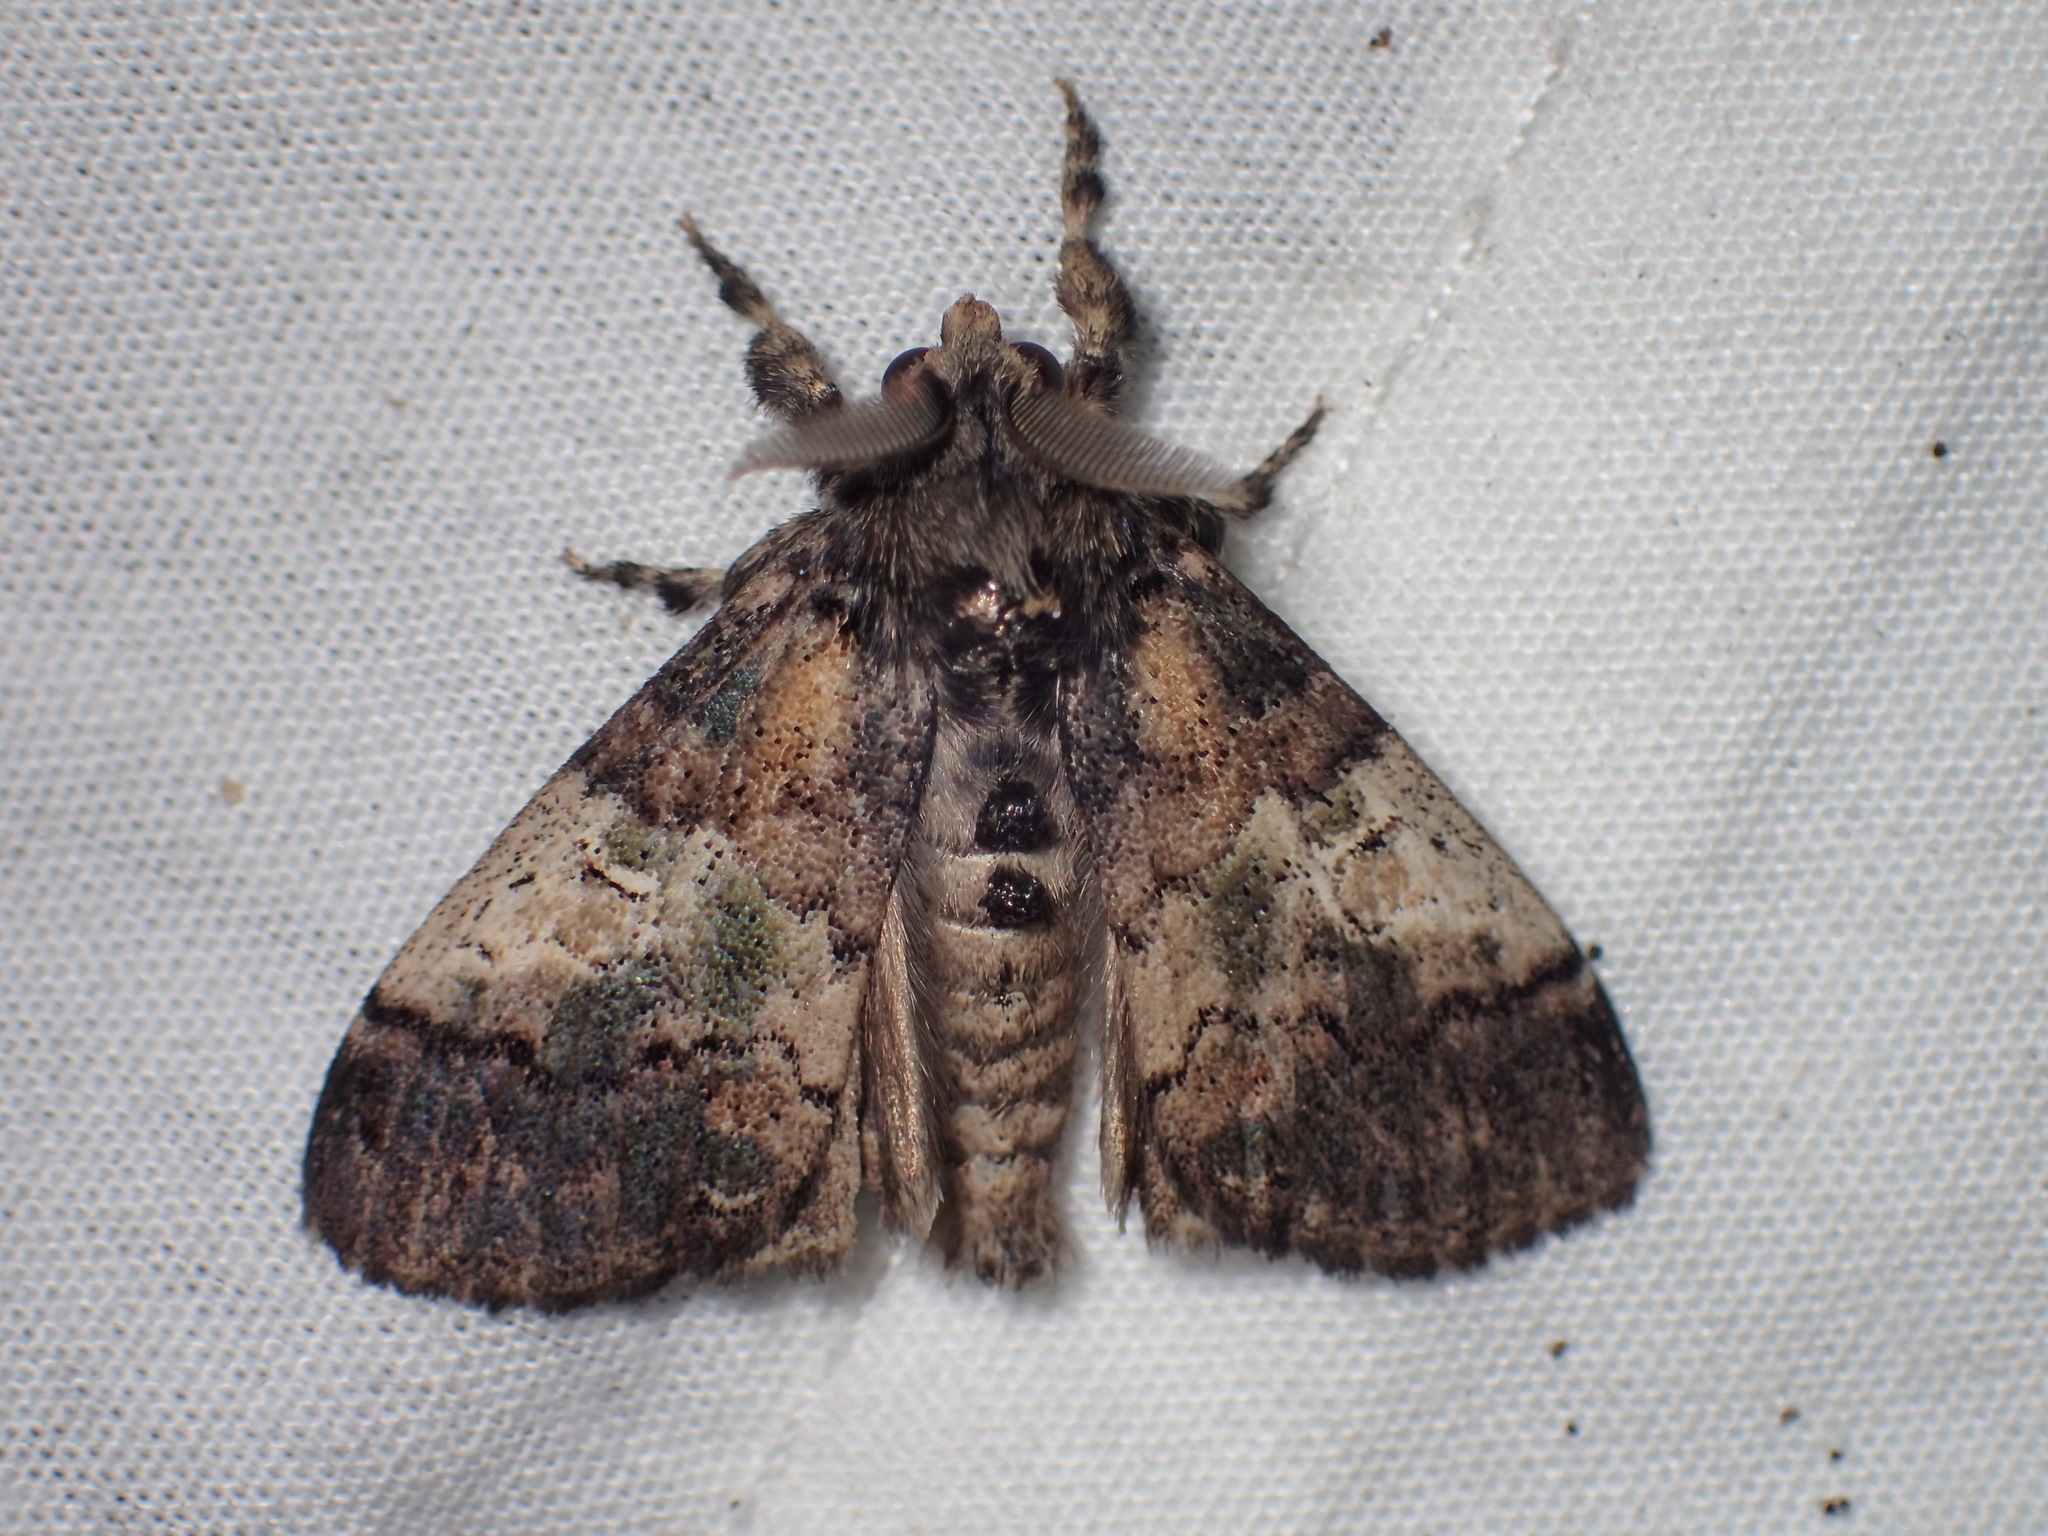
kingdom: Animalia
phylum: Arthropoda
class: Insecta
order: Lepidoptera
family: Erebidae
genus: Dasychira
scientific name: Dasychira meridionalis
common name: Southern tussock moth
